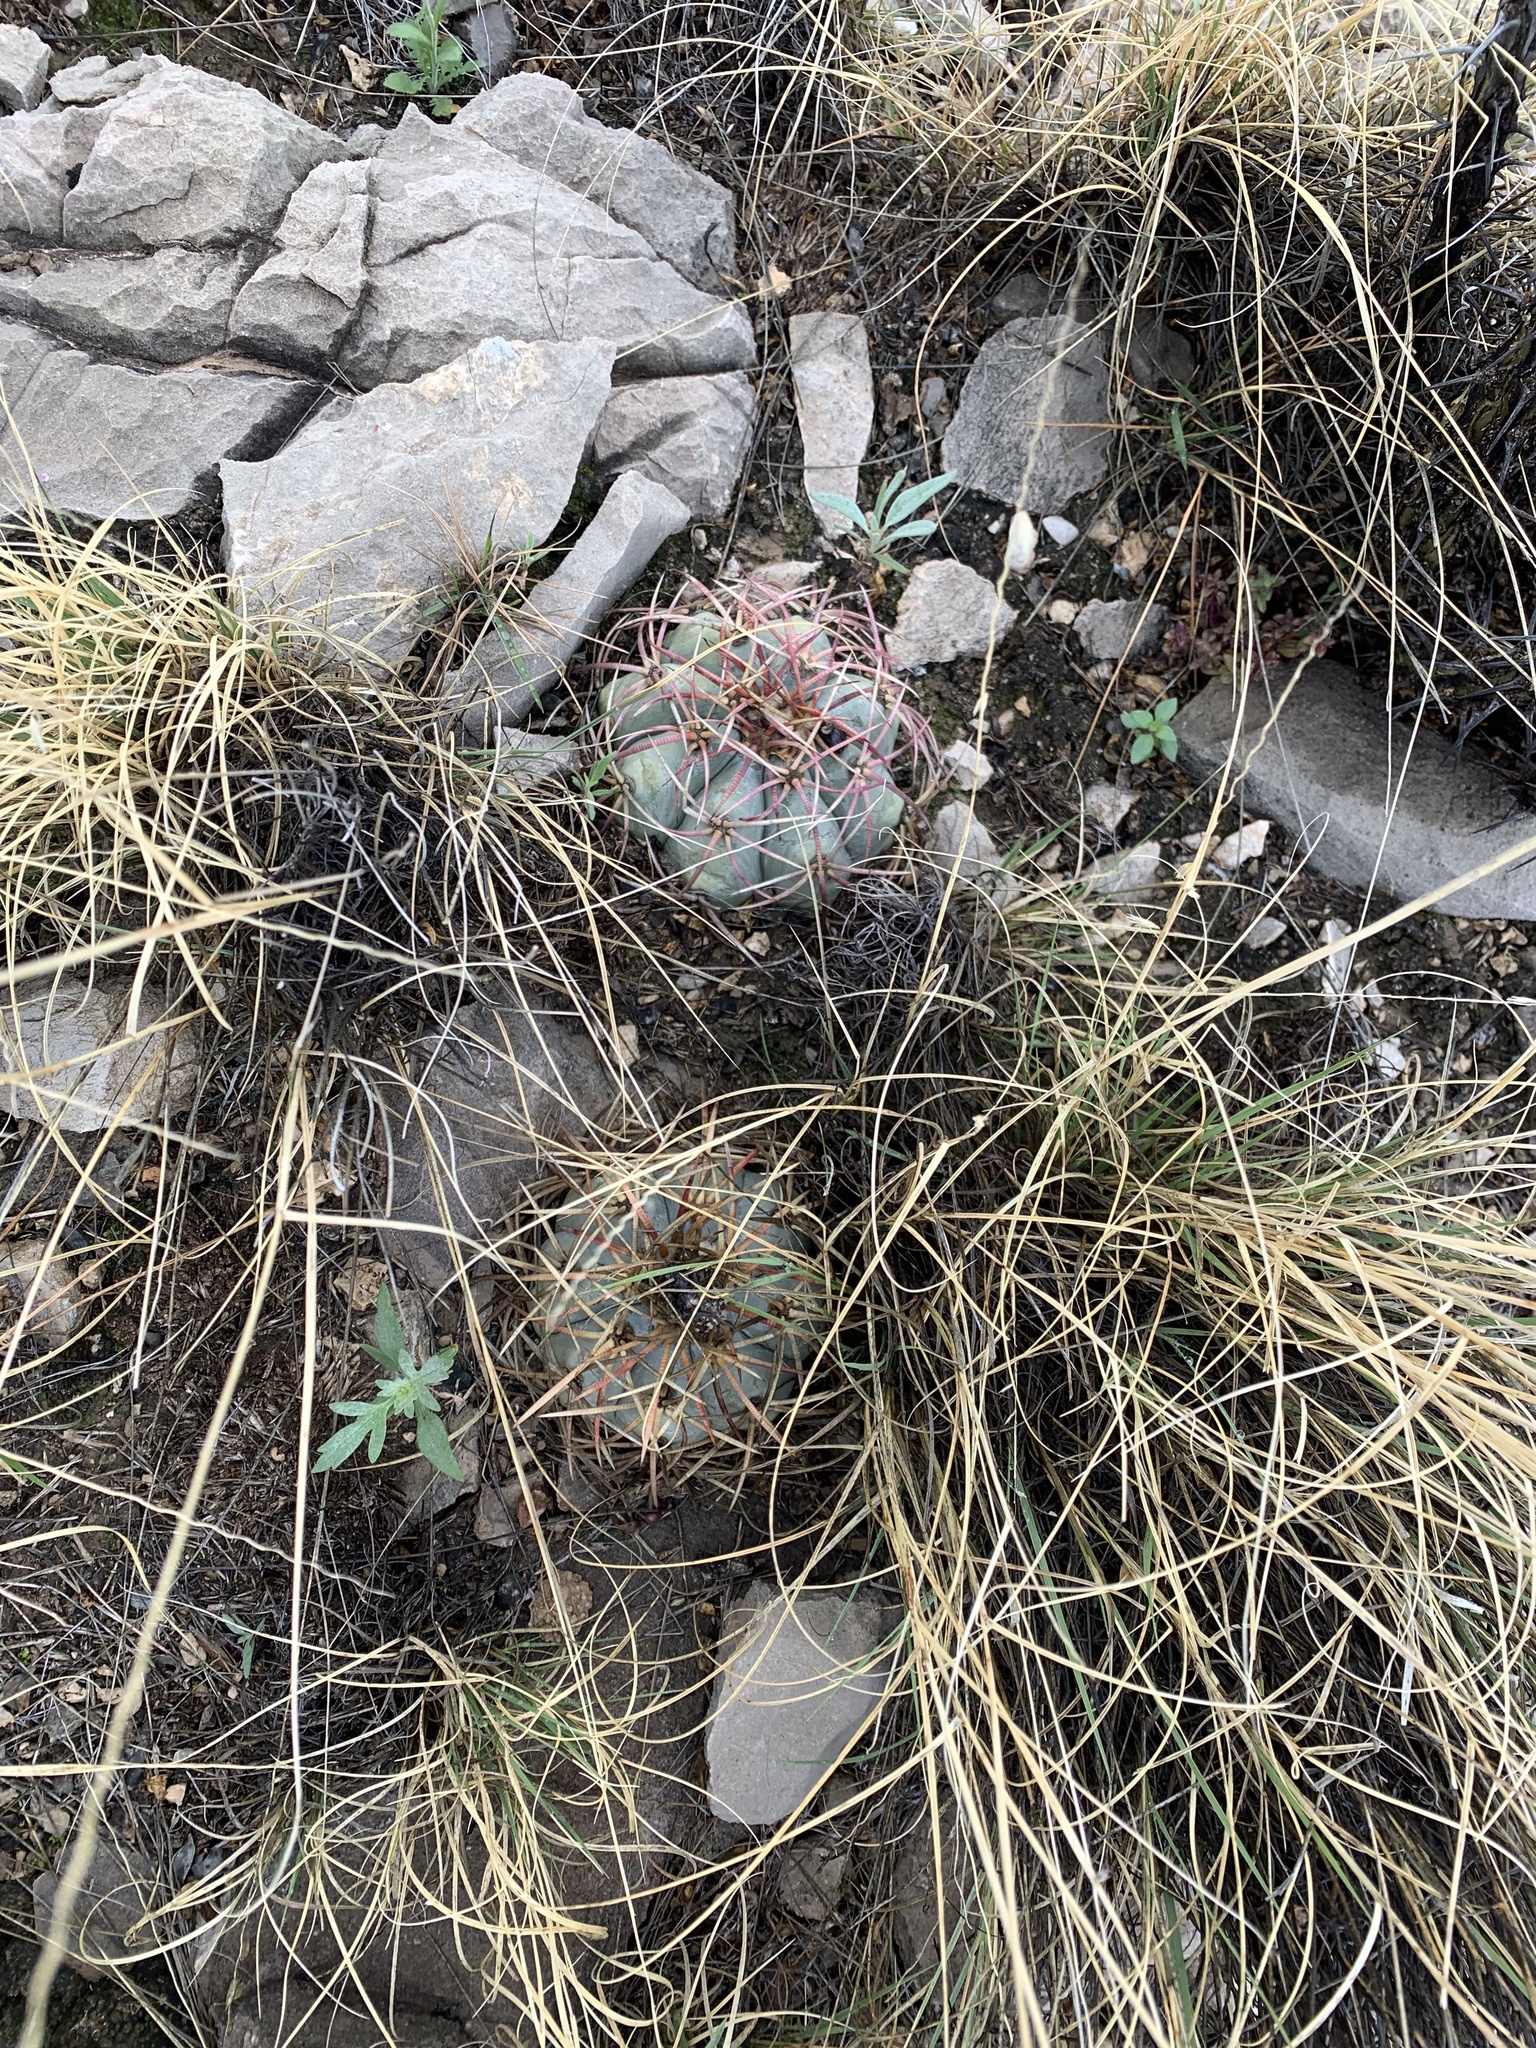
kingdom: Plantae
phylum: Tracheophyta
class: Magnoliopsida
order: Caryophyllales
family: Cactaceae
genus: Echinocactus
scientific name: Echinocactus horizonthalonius
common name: Devilshead
